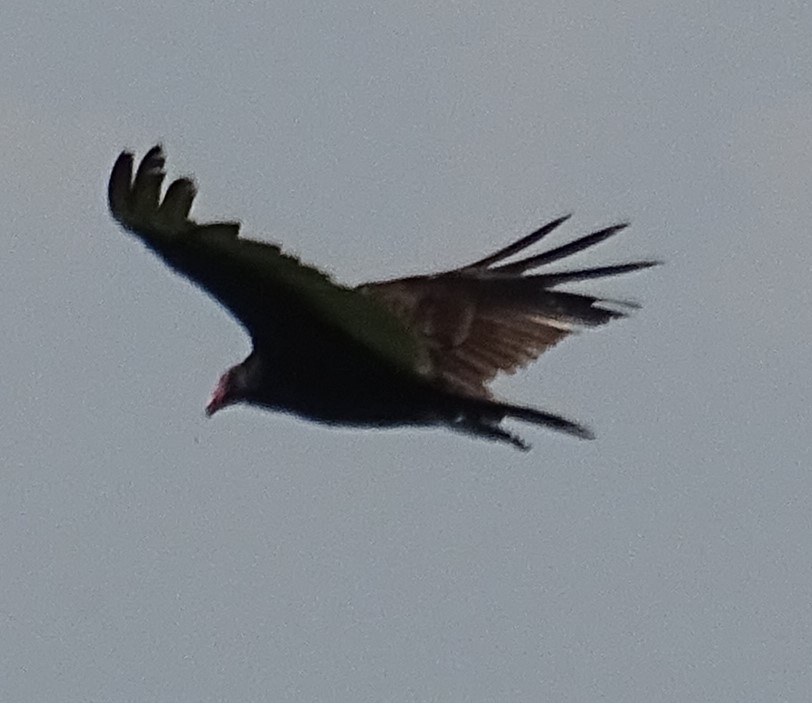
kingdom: Animalia
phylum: Chordata
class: Aves
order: Accipitriformes
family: Cathartidae
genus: Cathartes
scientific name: Cathartes aura
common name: Turkey vulture
